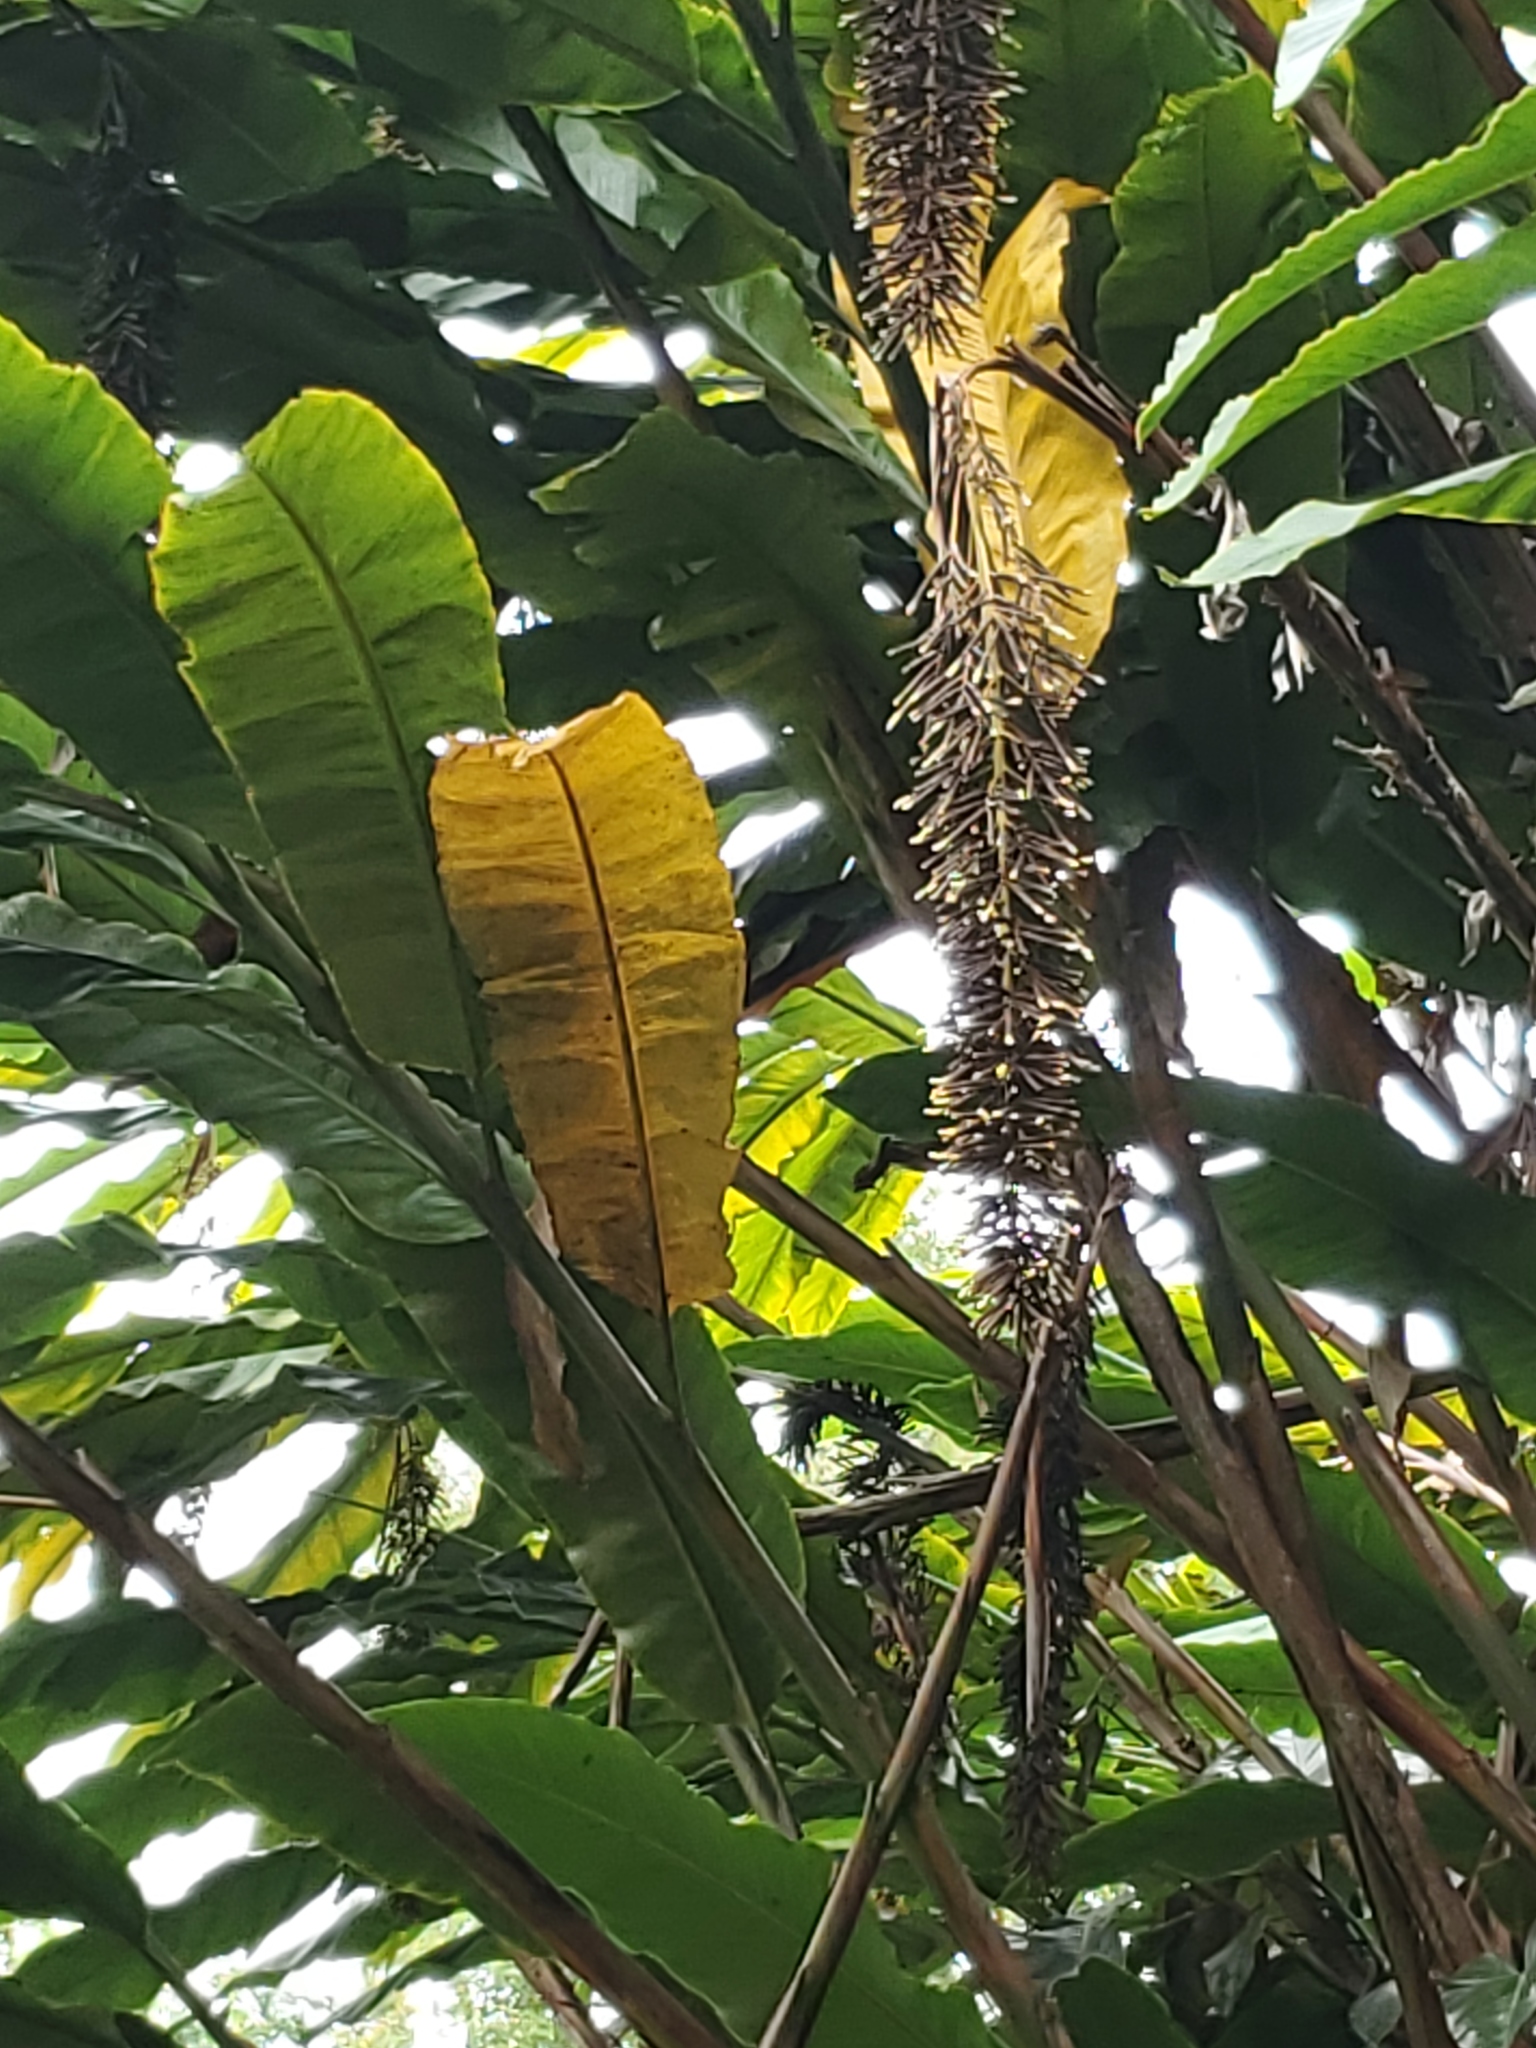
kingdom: Plantae
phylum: Tracheophyta
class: Liliopsida
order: Zingiberales
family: Zingiberaceae
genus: Alpinia
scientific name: Alpinia boia
